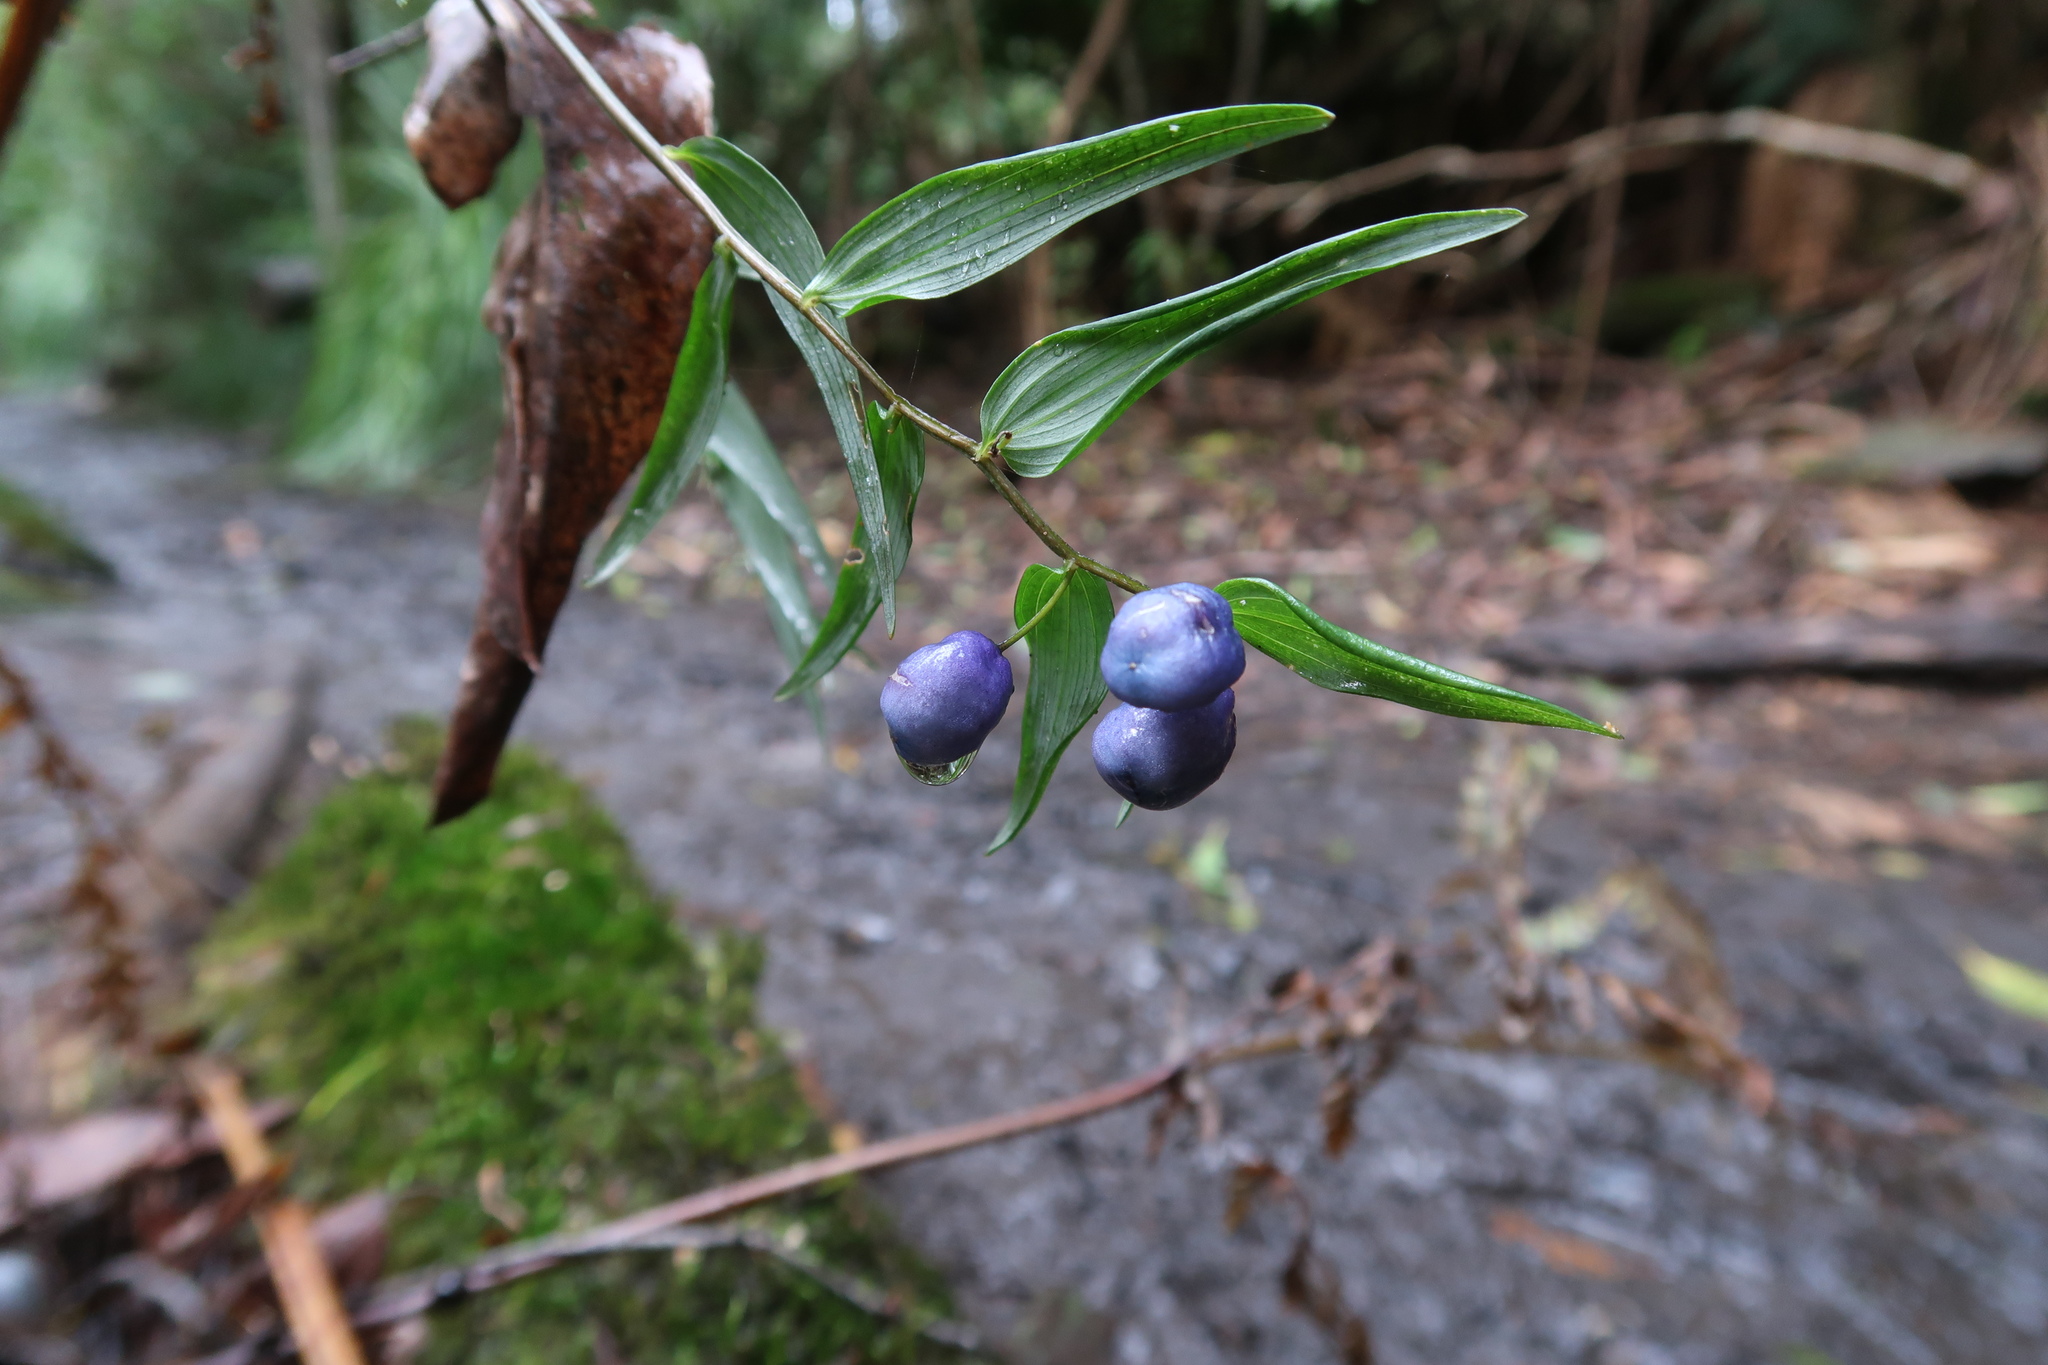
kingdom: Plantae
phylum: Tracheophyta
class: Liliopsida
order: Liliales
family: Alstroemeriaceae
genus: Drymophila
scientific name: Drymophila cyanocarpa
